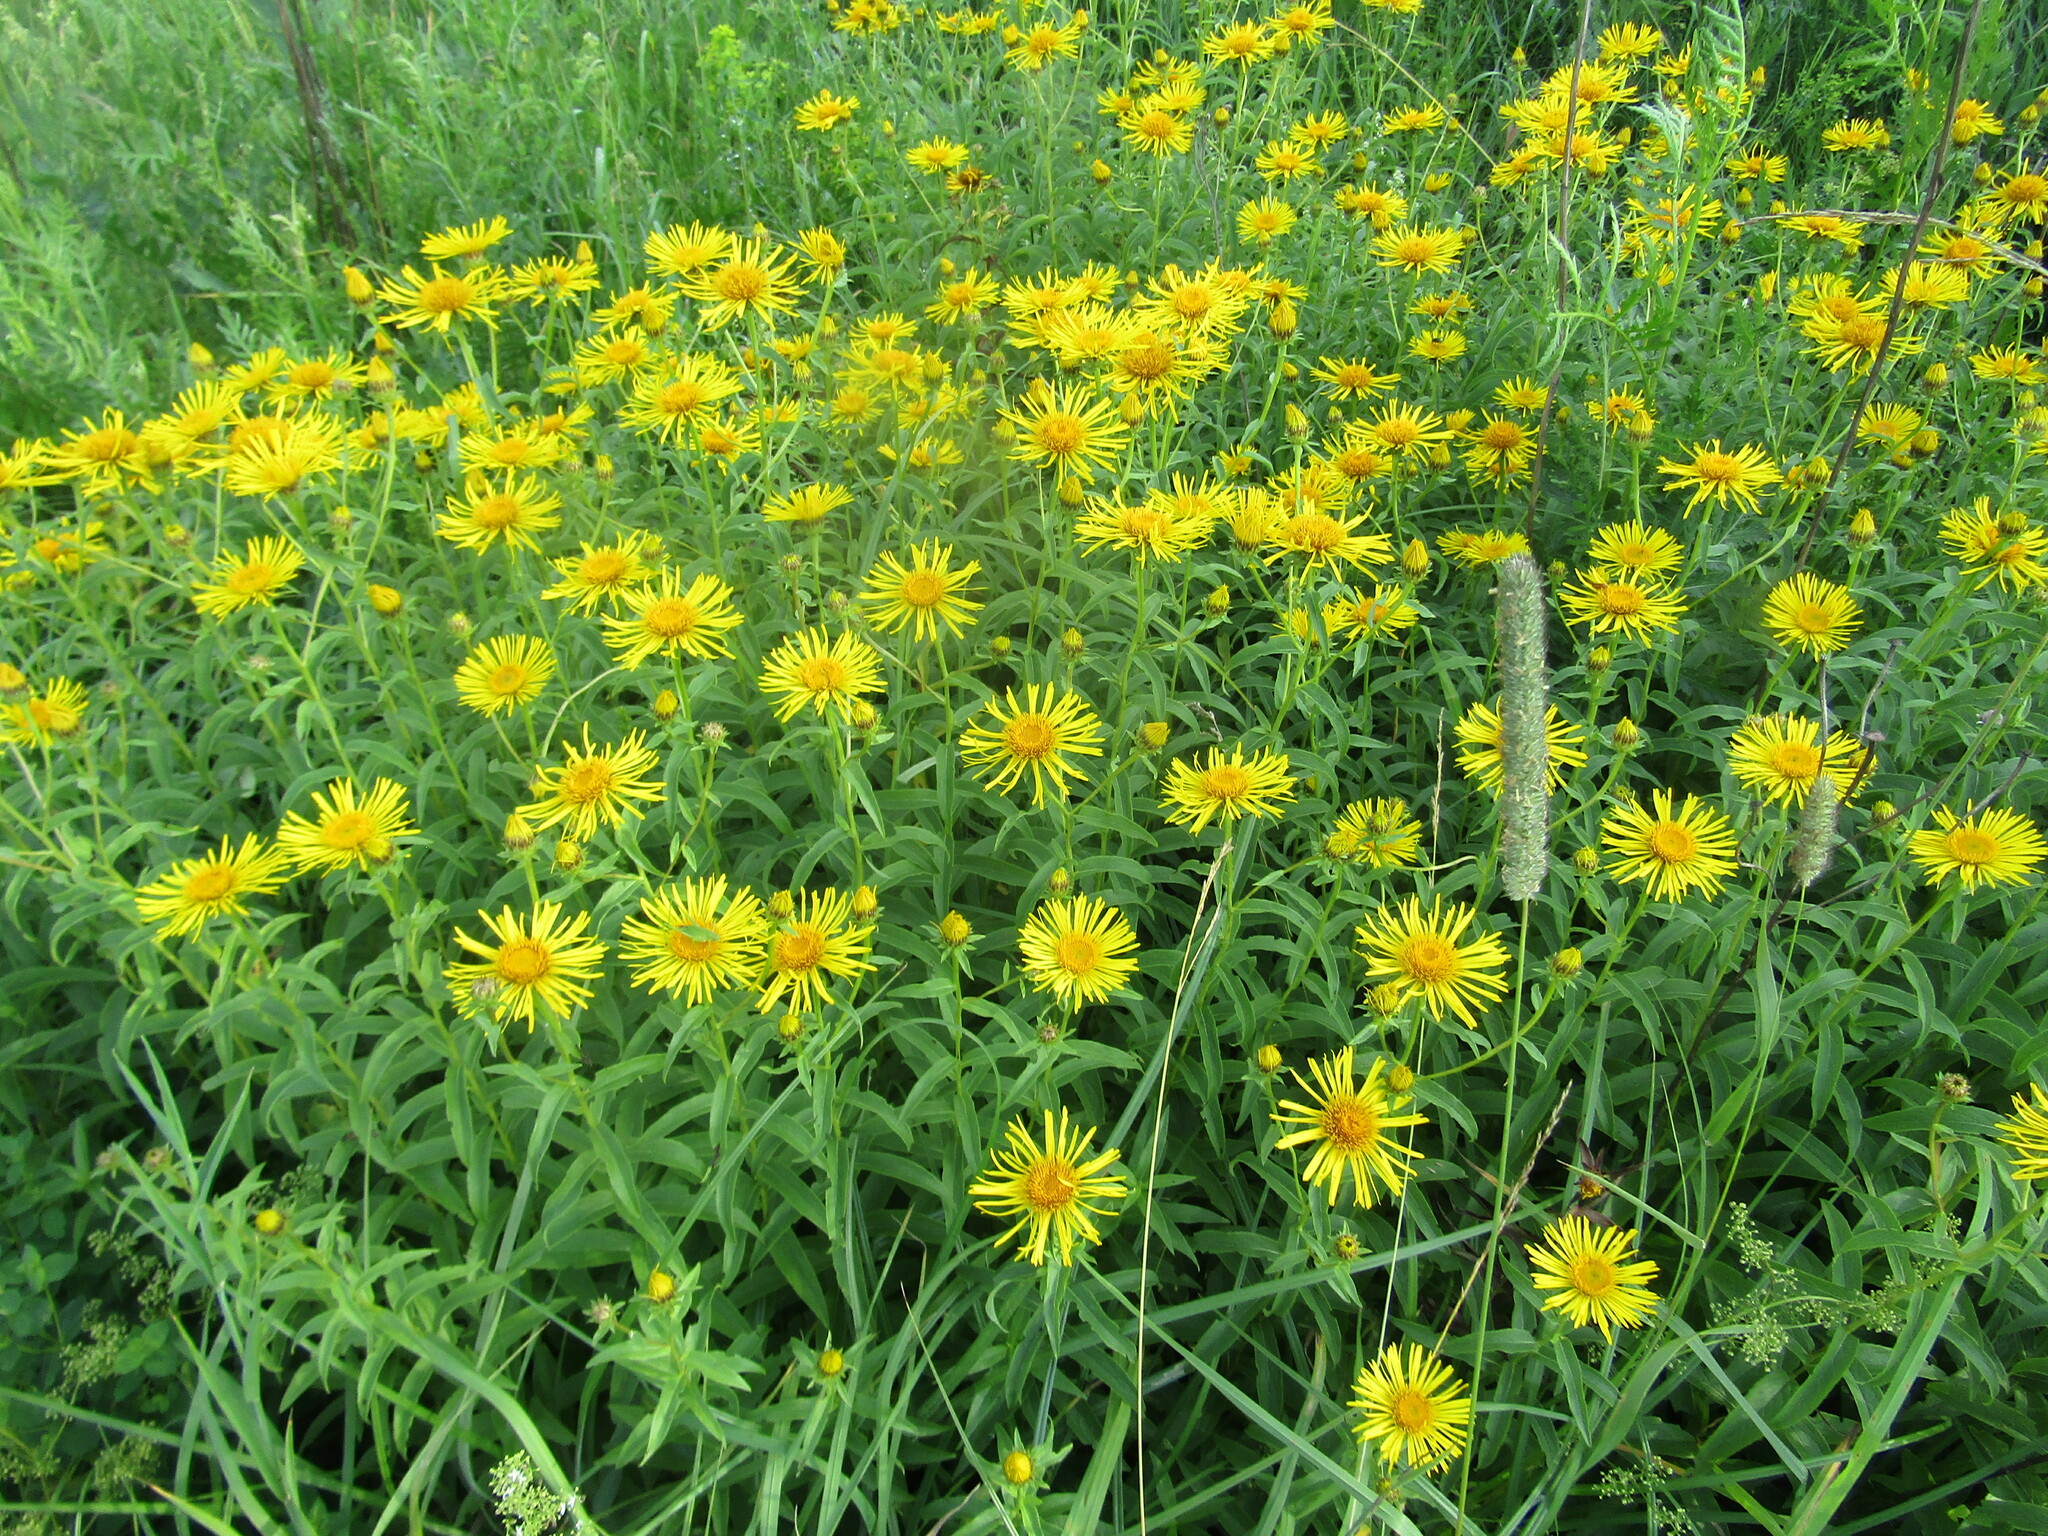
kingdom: Plantae
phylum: Tracheophyta
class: Magnoliopsida
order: Asterales
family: Asteraceae
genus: Pentanema
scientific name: Pentanema salicinum
